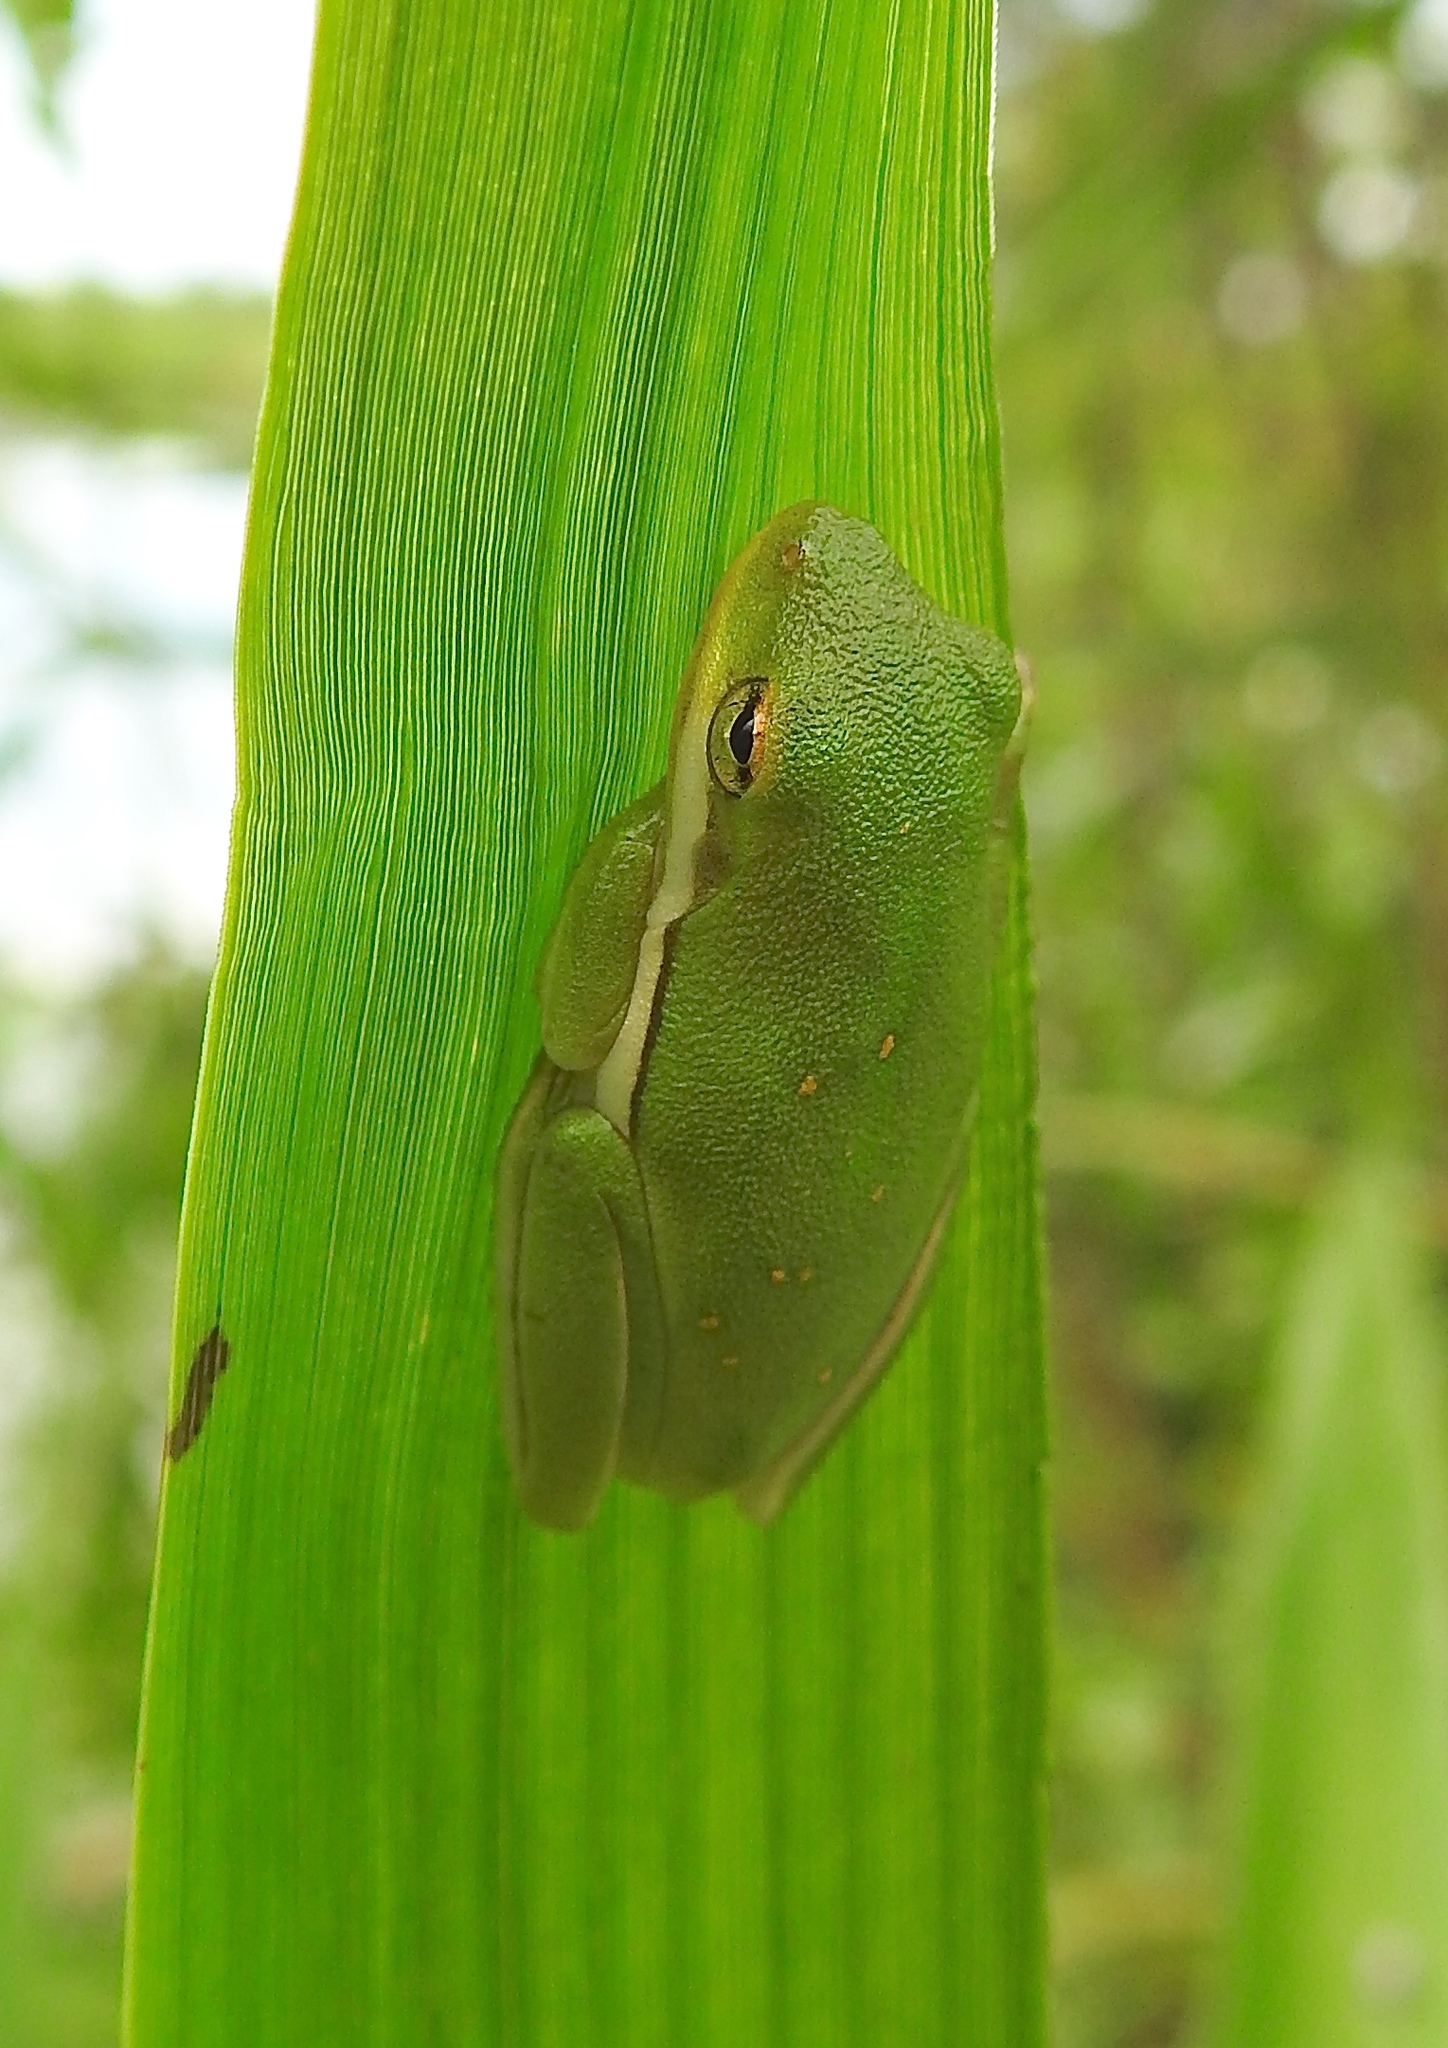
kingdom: Animalia
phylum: Chordata
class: Amphibia
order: Anura
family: Hylidae
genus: Dryophytes
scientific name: Dryophytes cinereus
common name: Green treefrog
